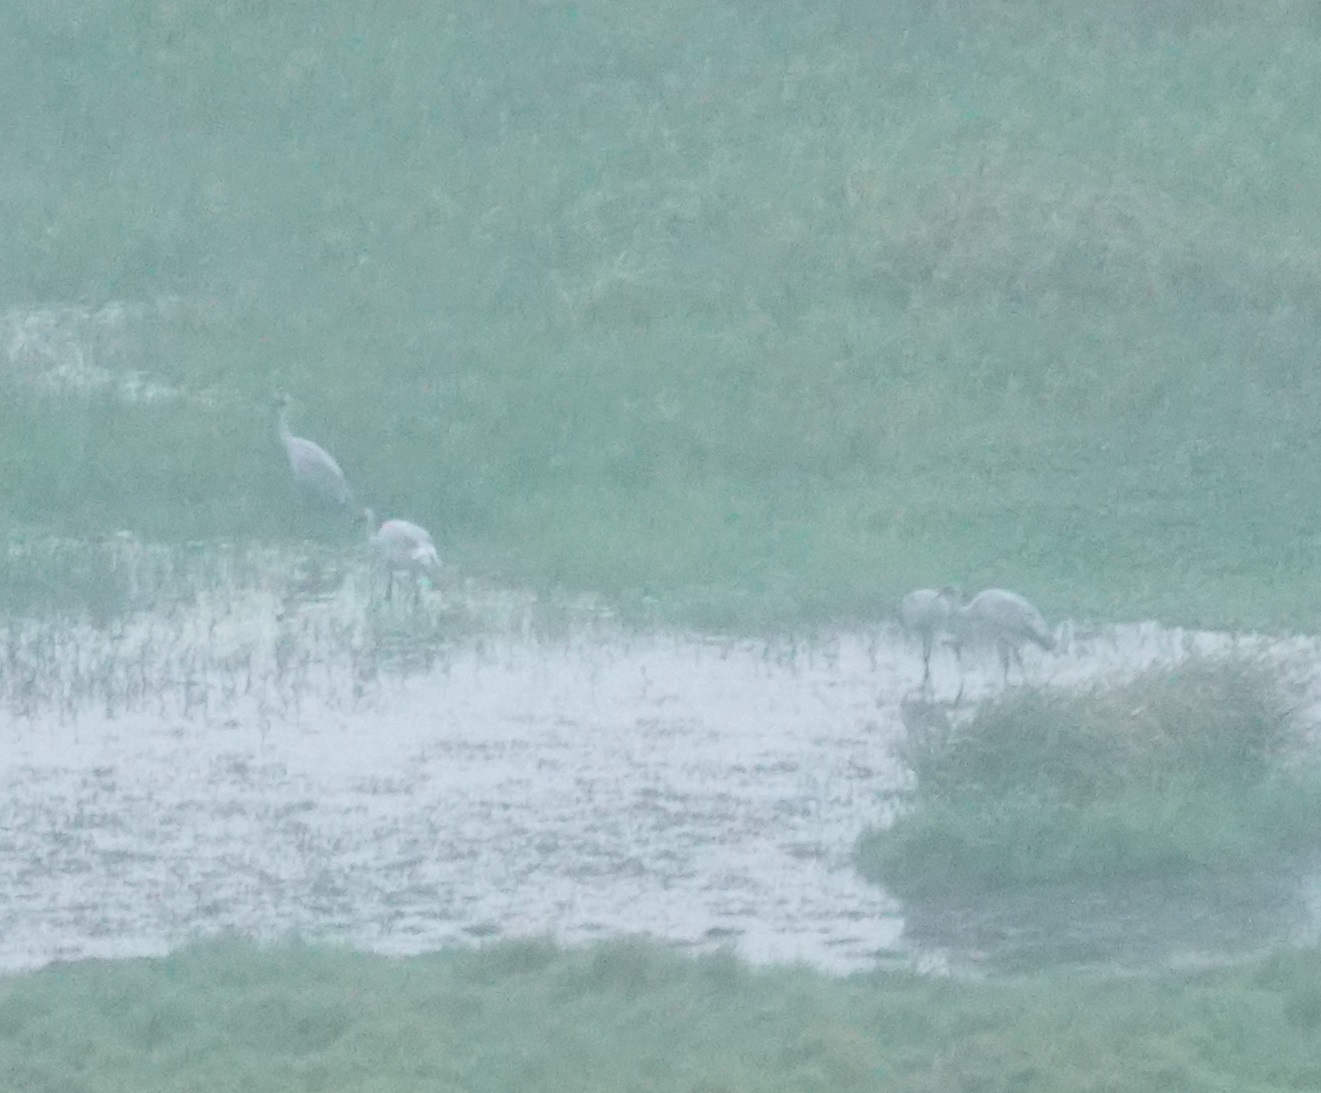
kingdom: Animalia
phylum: Chordata
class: Aves
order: Gruiformes
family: Gruidae
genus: Grus
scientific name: Grus rubicunda
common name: Brolga
